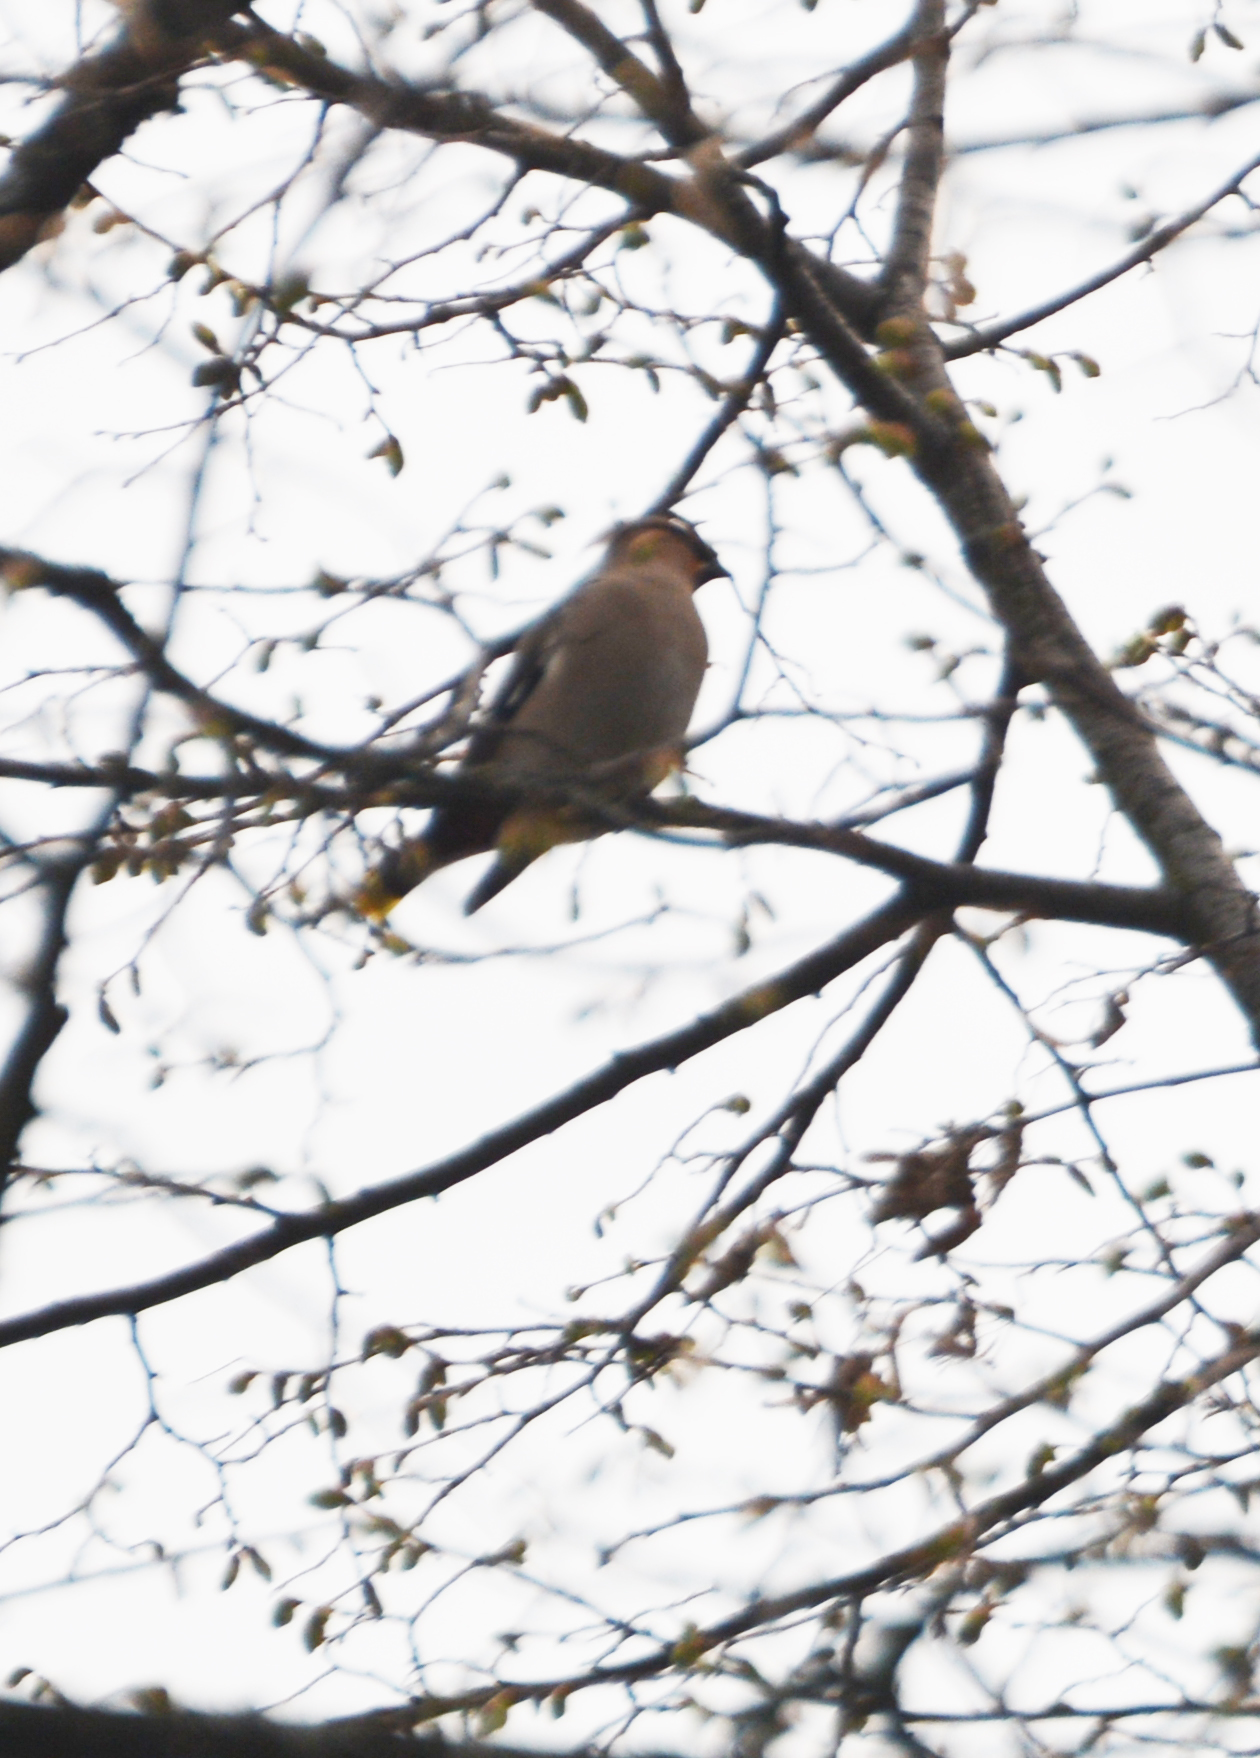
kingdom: Animalia
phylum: Chordata
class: Aves
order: Passeriformes
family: Bombycillidae
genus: Bombycilla
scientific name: Bombycilla garrulus
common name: Bohemian waxwing
